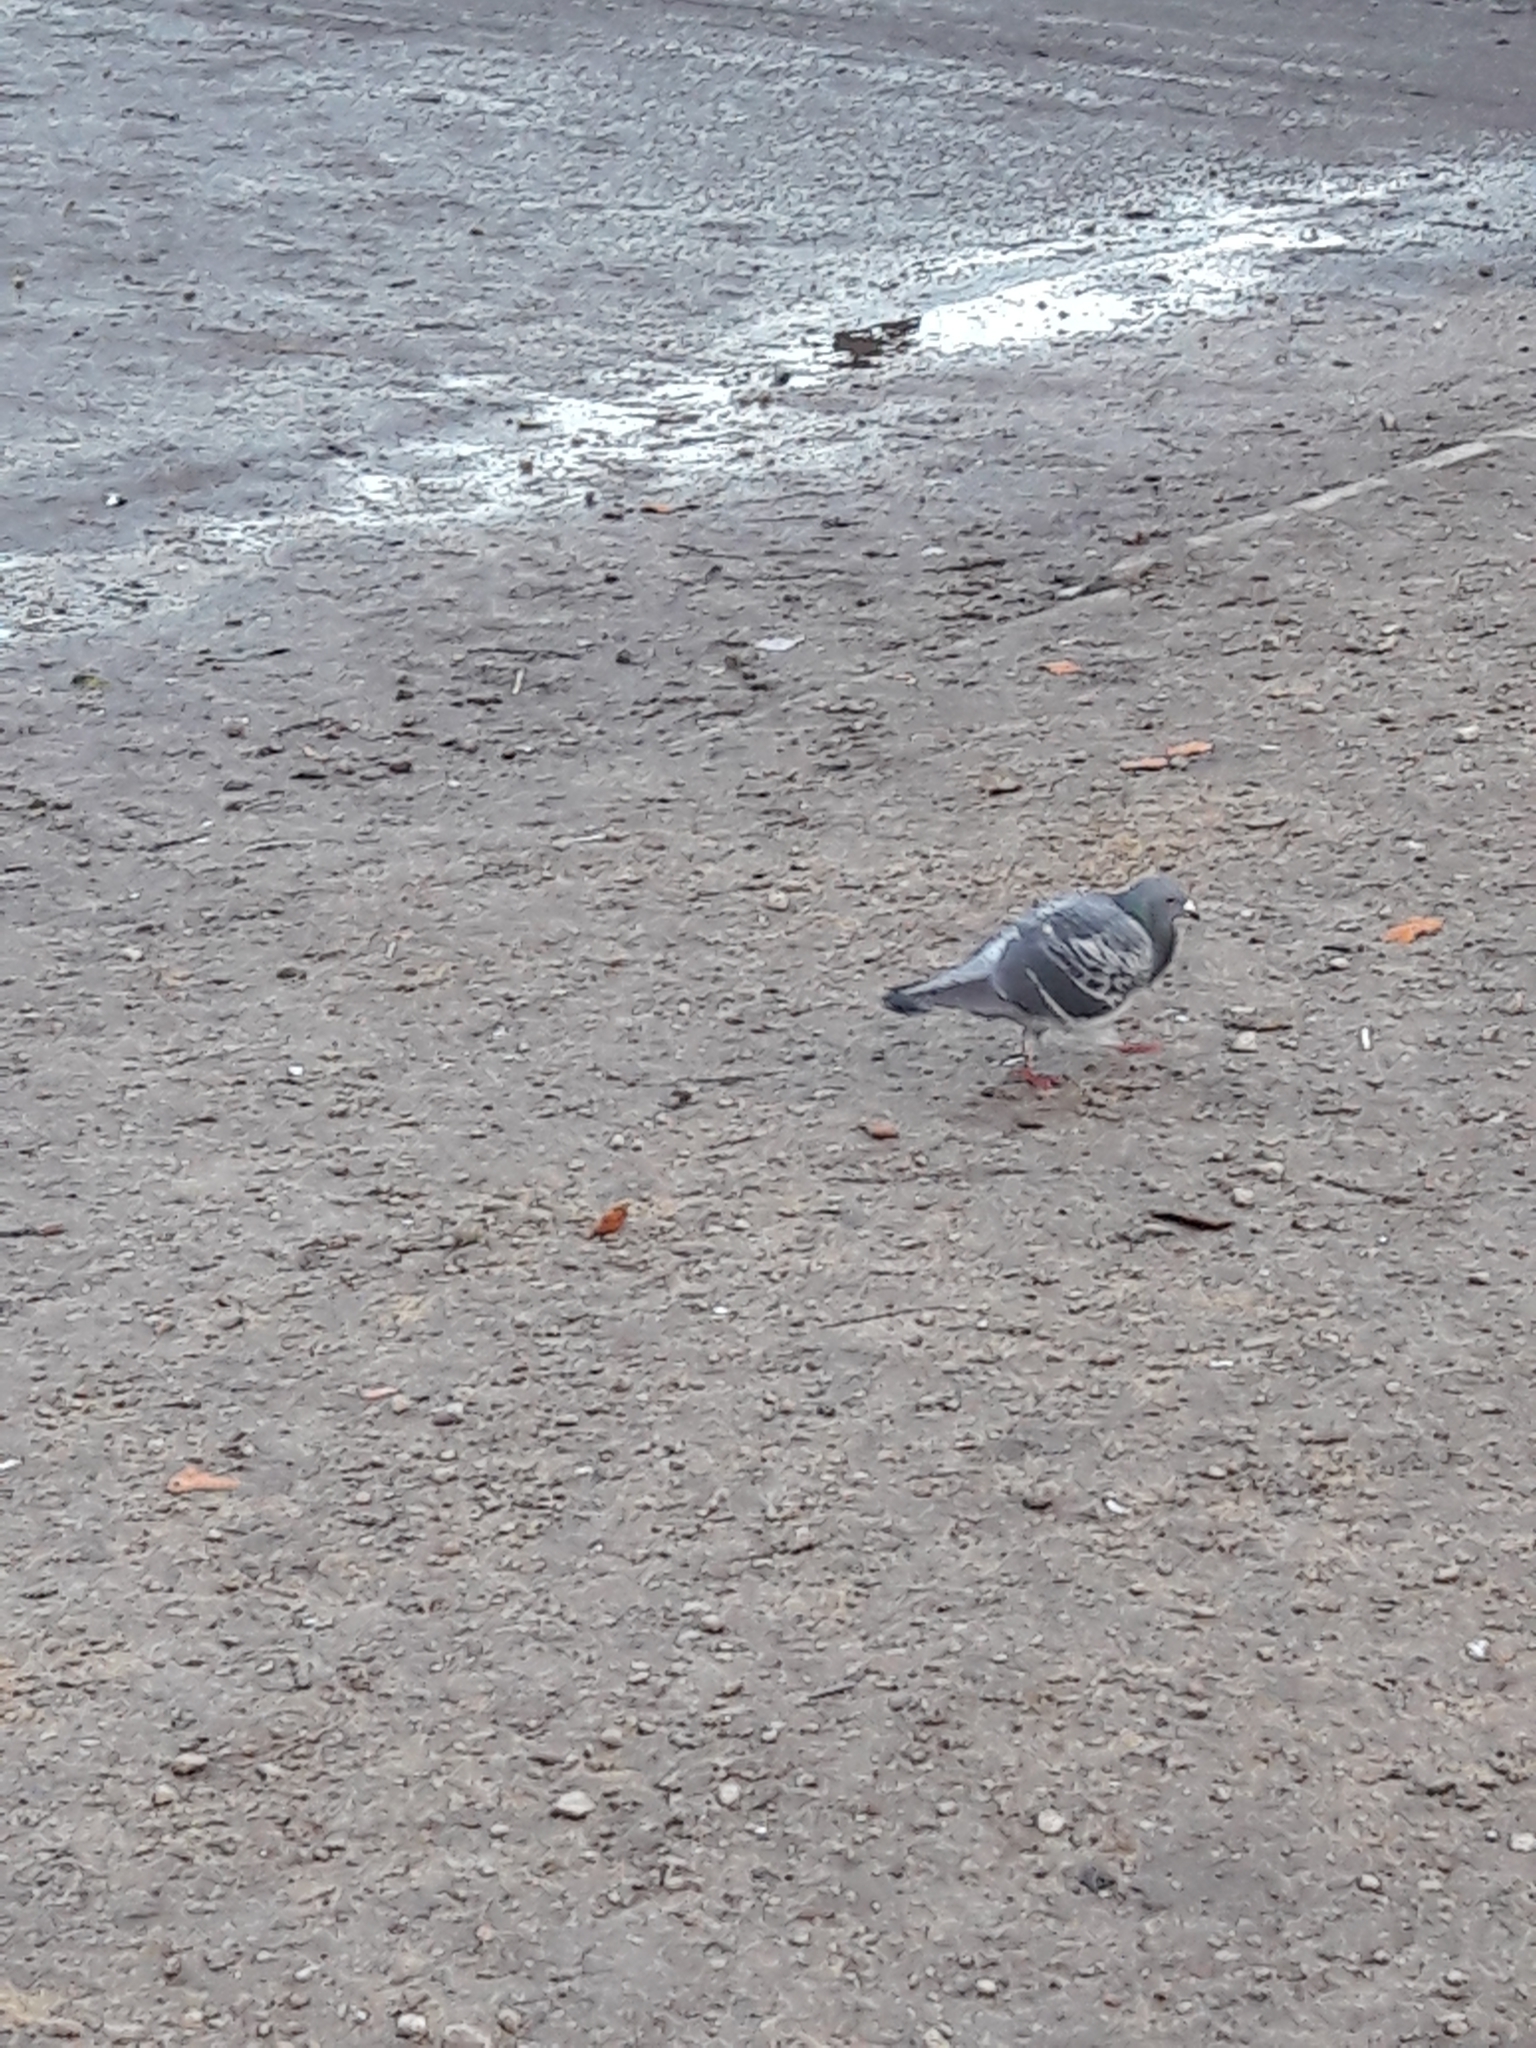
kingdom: Animalia
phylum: Chordata
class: Aves
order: Columbiformes
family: Columbidae
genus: Columba
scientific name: Columba livia
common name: Rock pigeon
